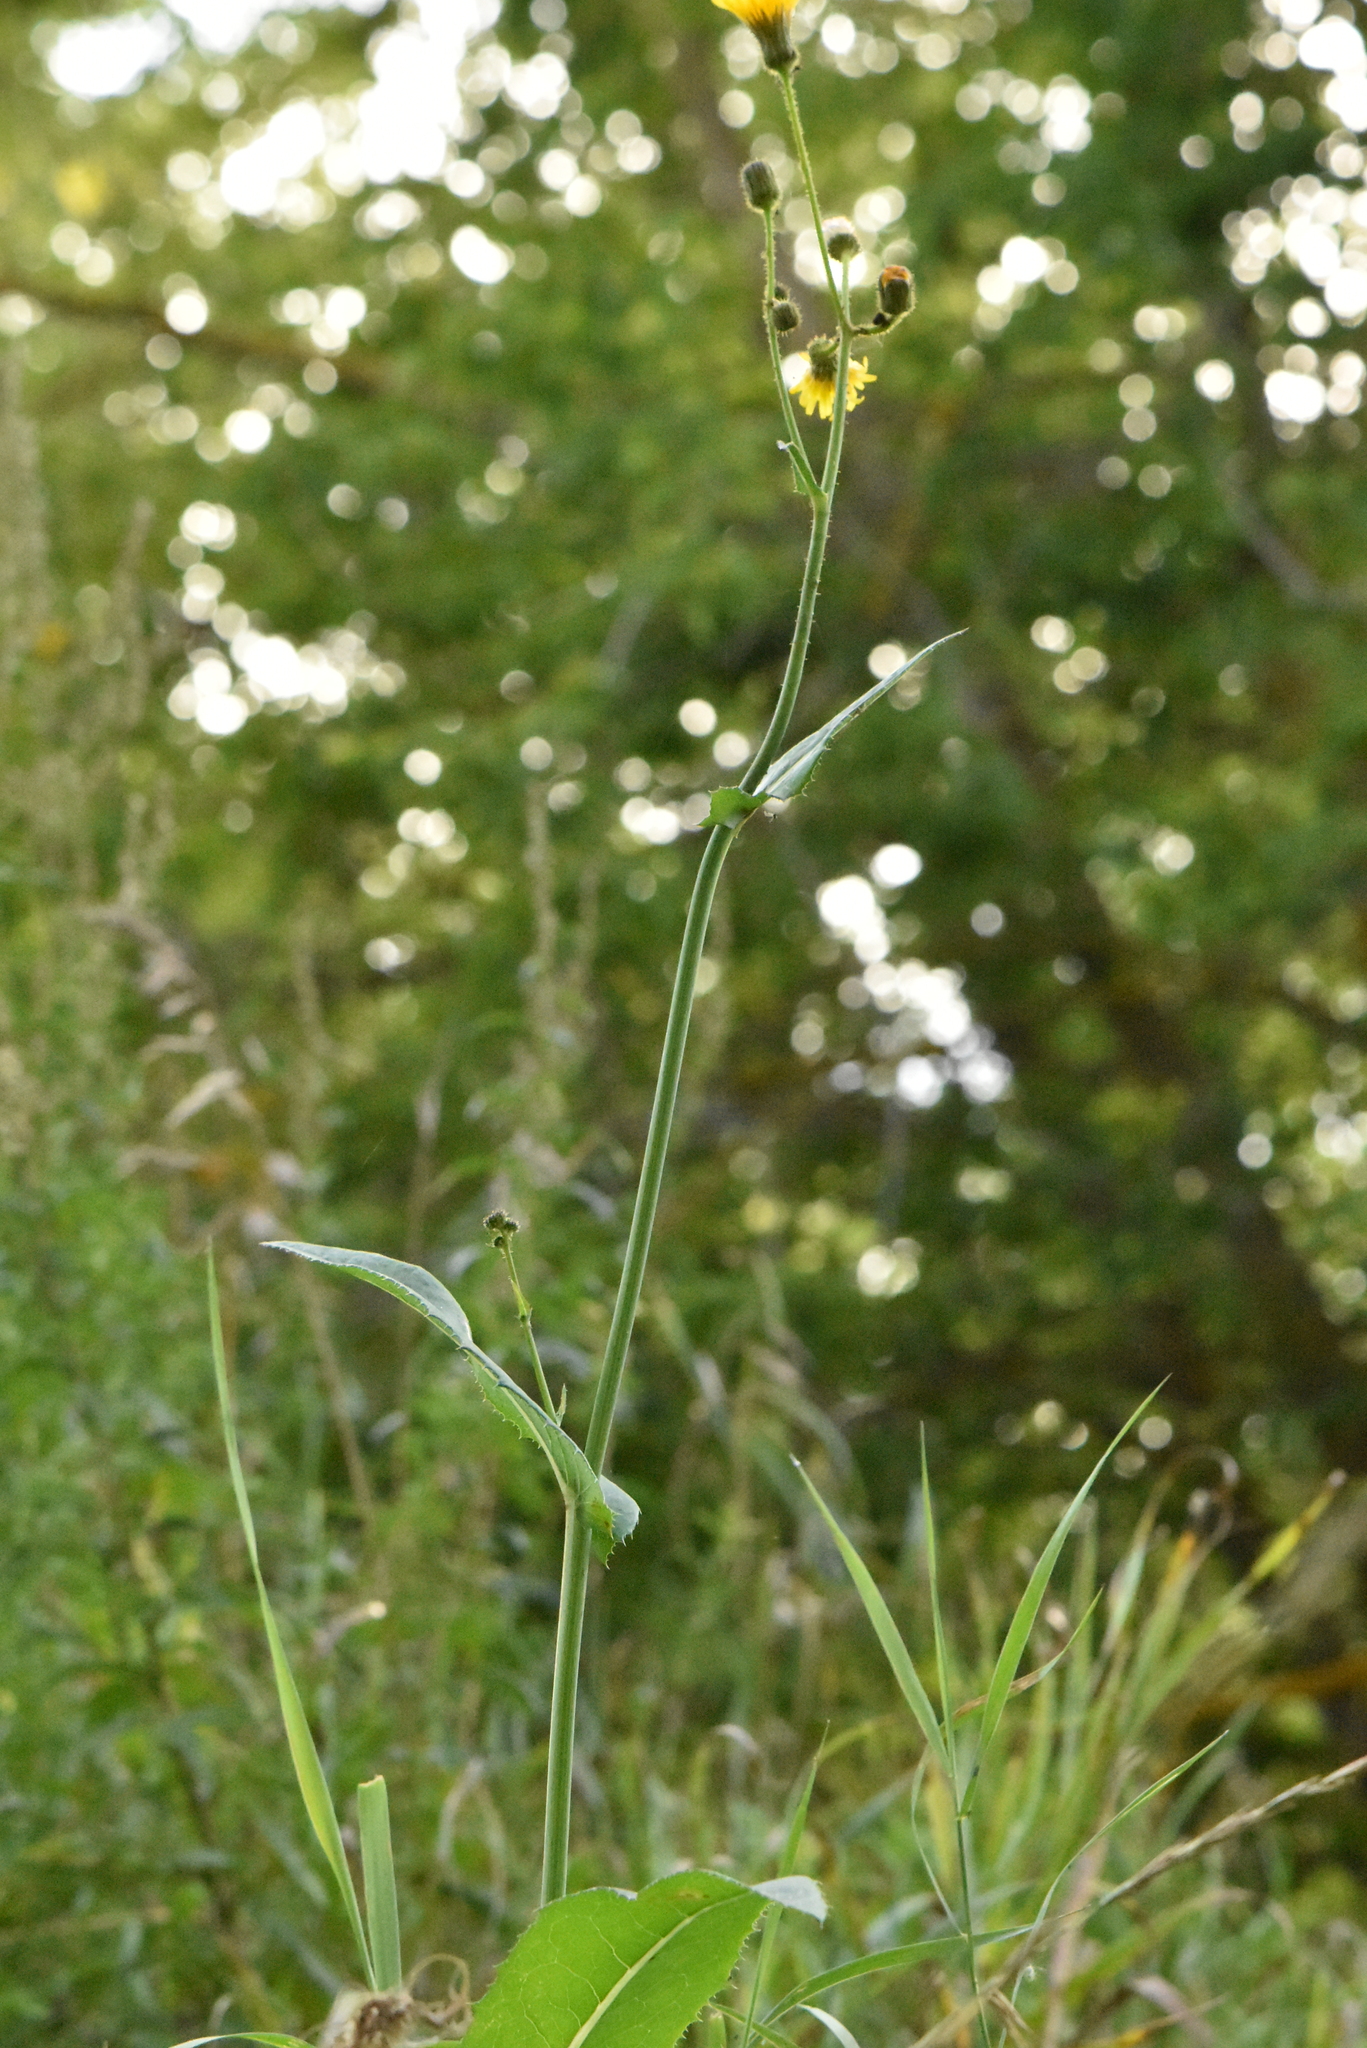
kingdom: Plantae
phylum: Tracheophyta
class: Magnoliopsida
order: Asterales
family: Asteraceae
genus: Sonchus
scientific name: Sonchus arvensis
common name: Perennial sow-thistle
